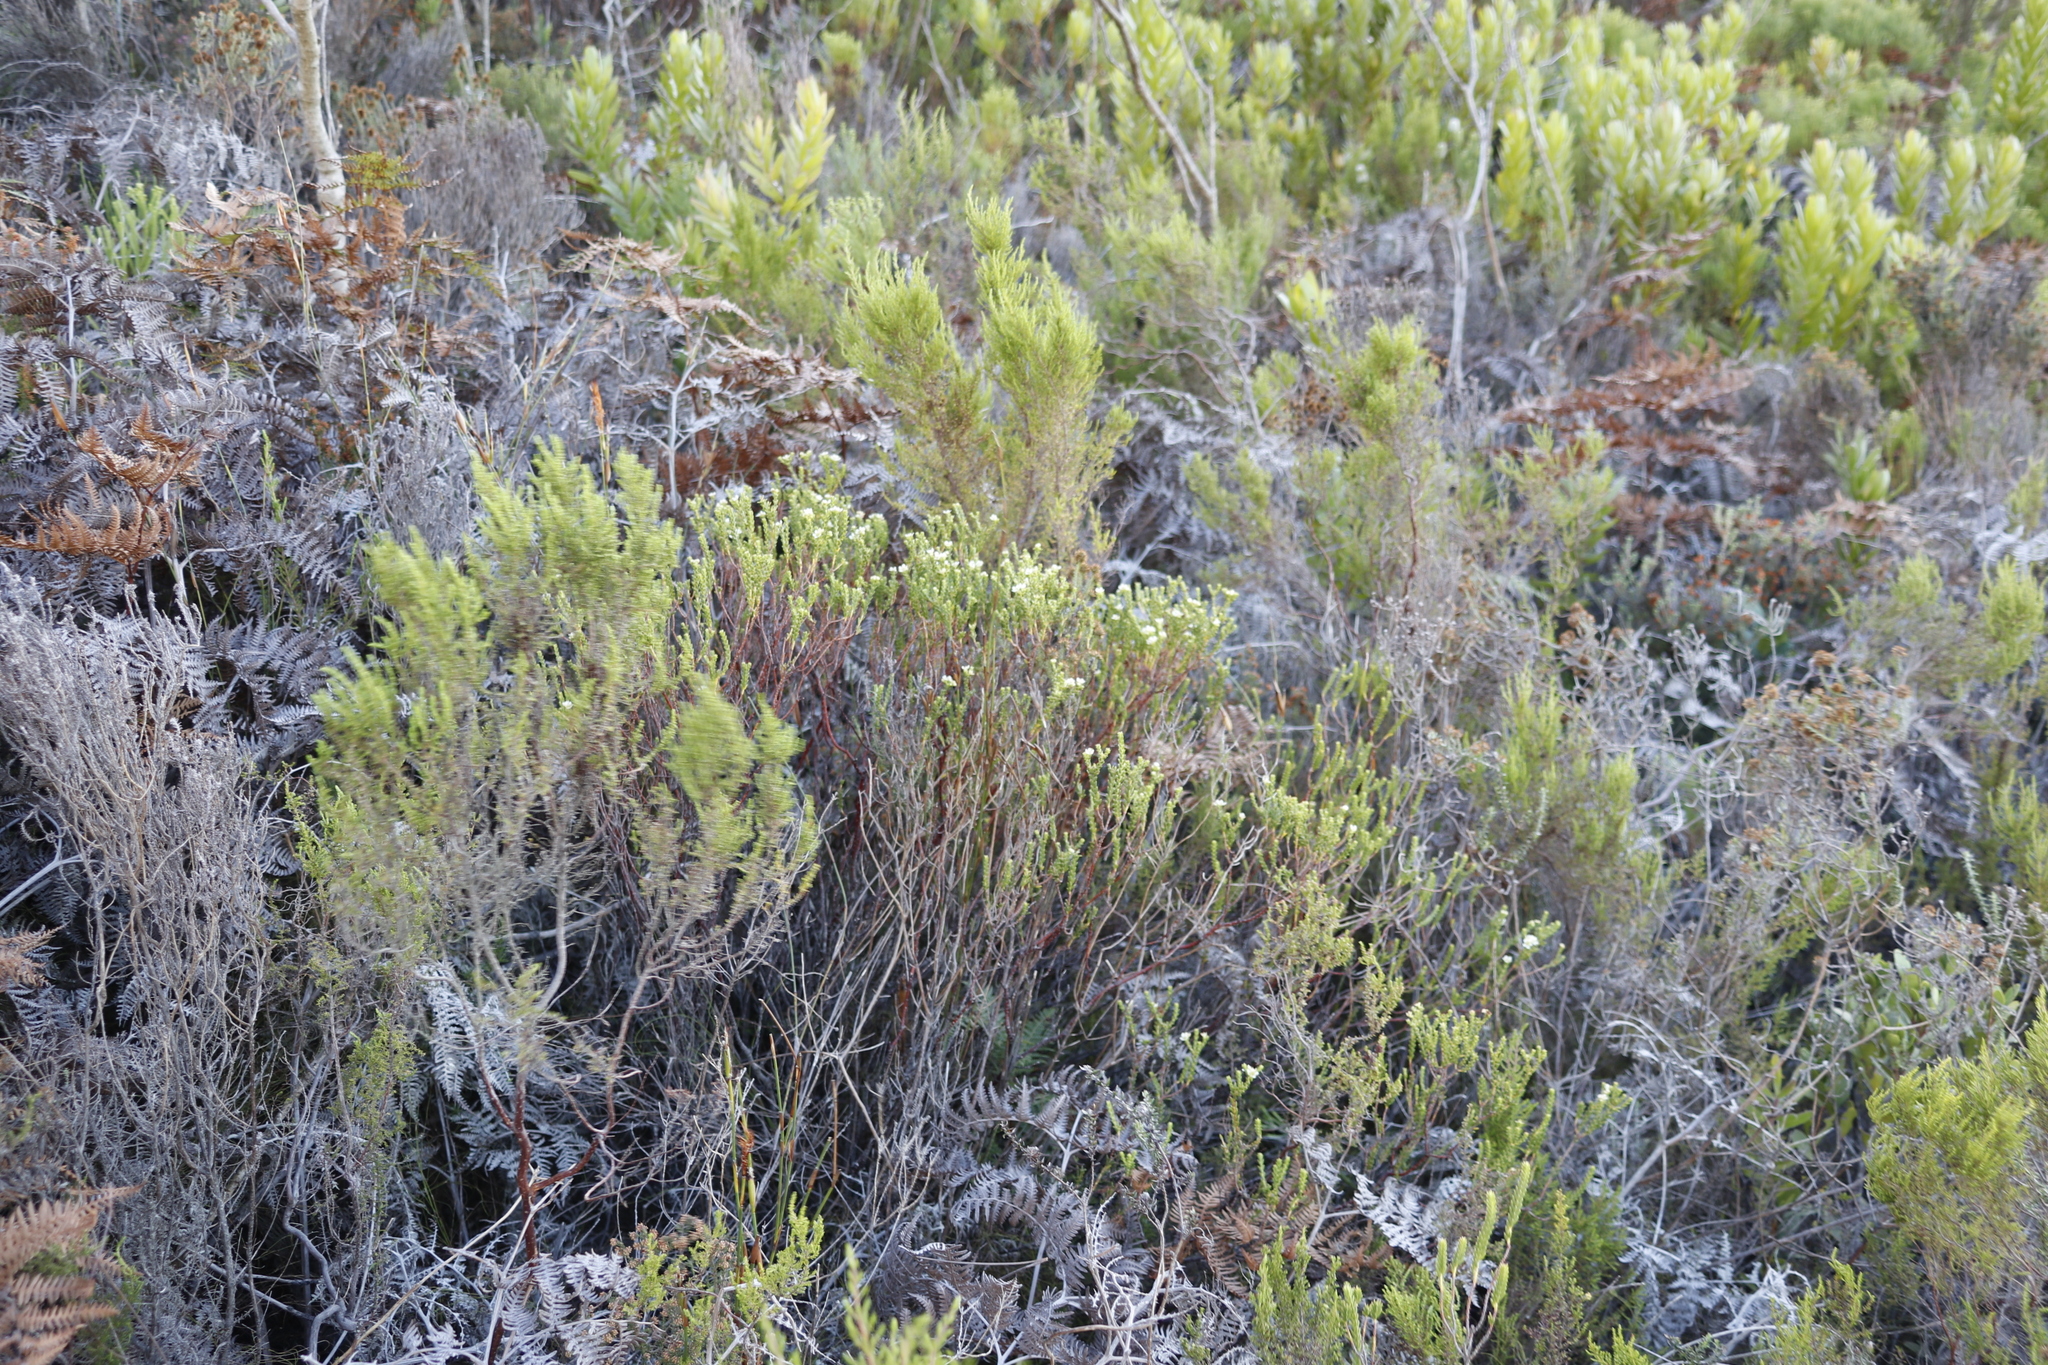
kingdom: Plantae
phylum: Tracheophyta
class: Magnoliopsida
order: Sapindales
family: Rutaceae
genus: Diosma
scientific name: Diosma oppositifolia
